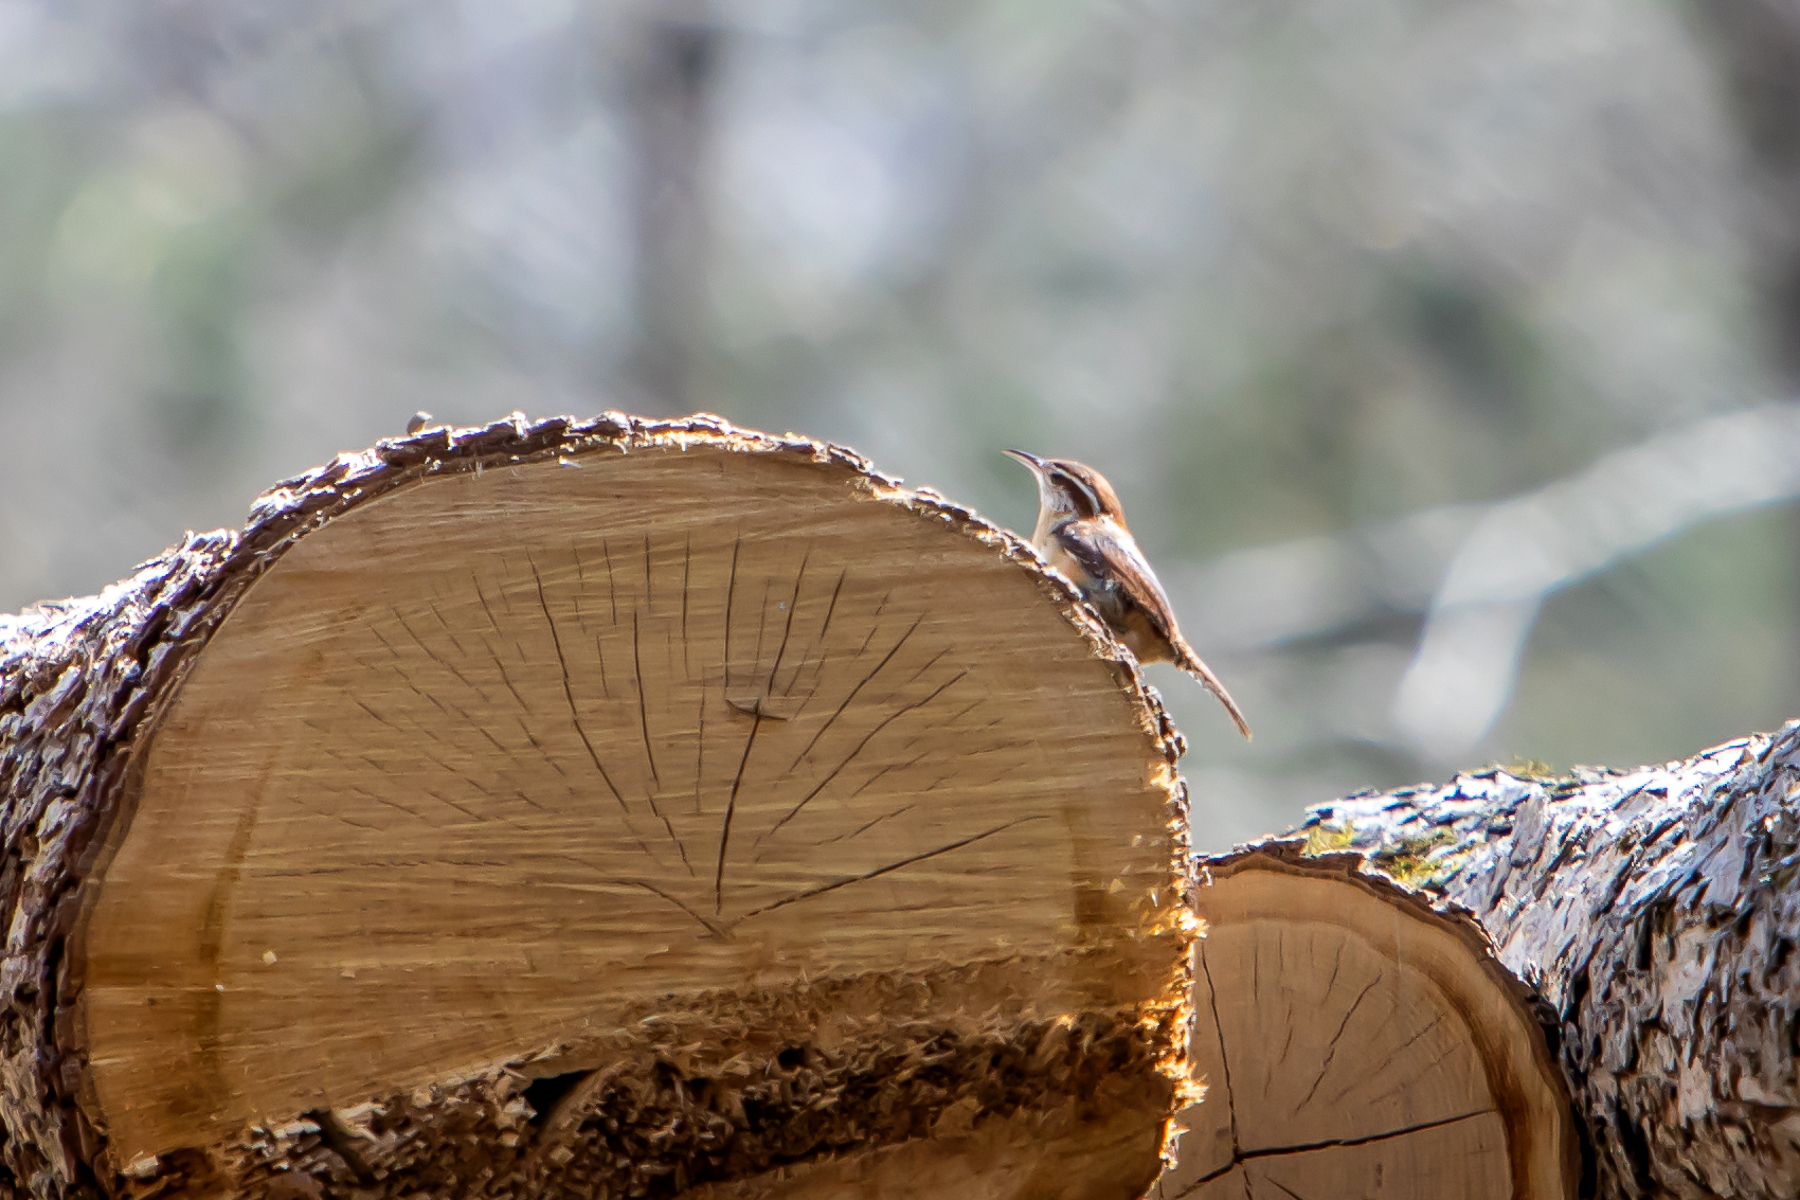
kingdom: Animalia
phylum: Chordata
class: Aves
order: Passeriformes
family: Troglodytidae
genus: Thryothorus
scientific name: Thryothorus ludovicianus
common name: Carolina wren
